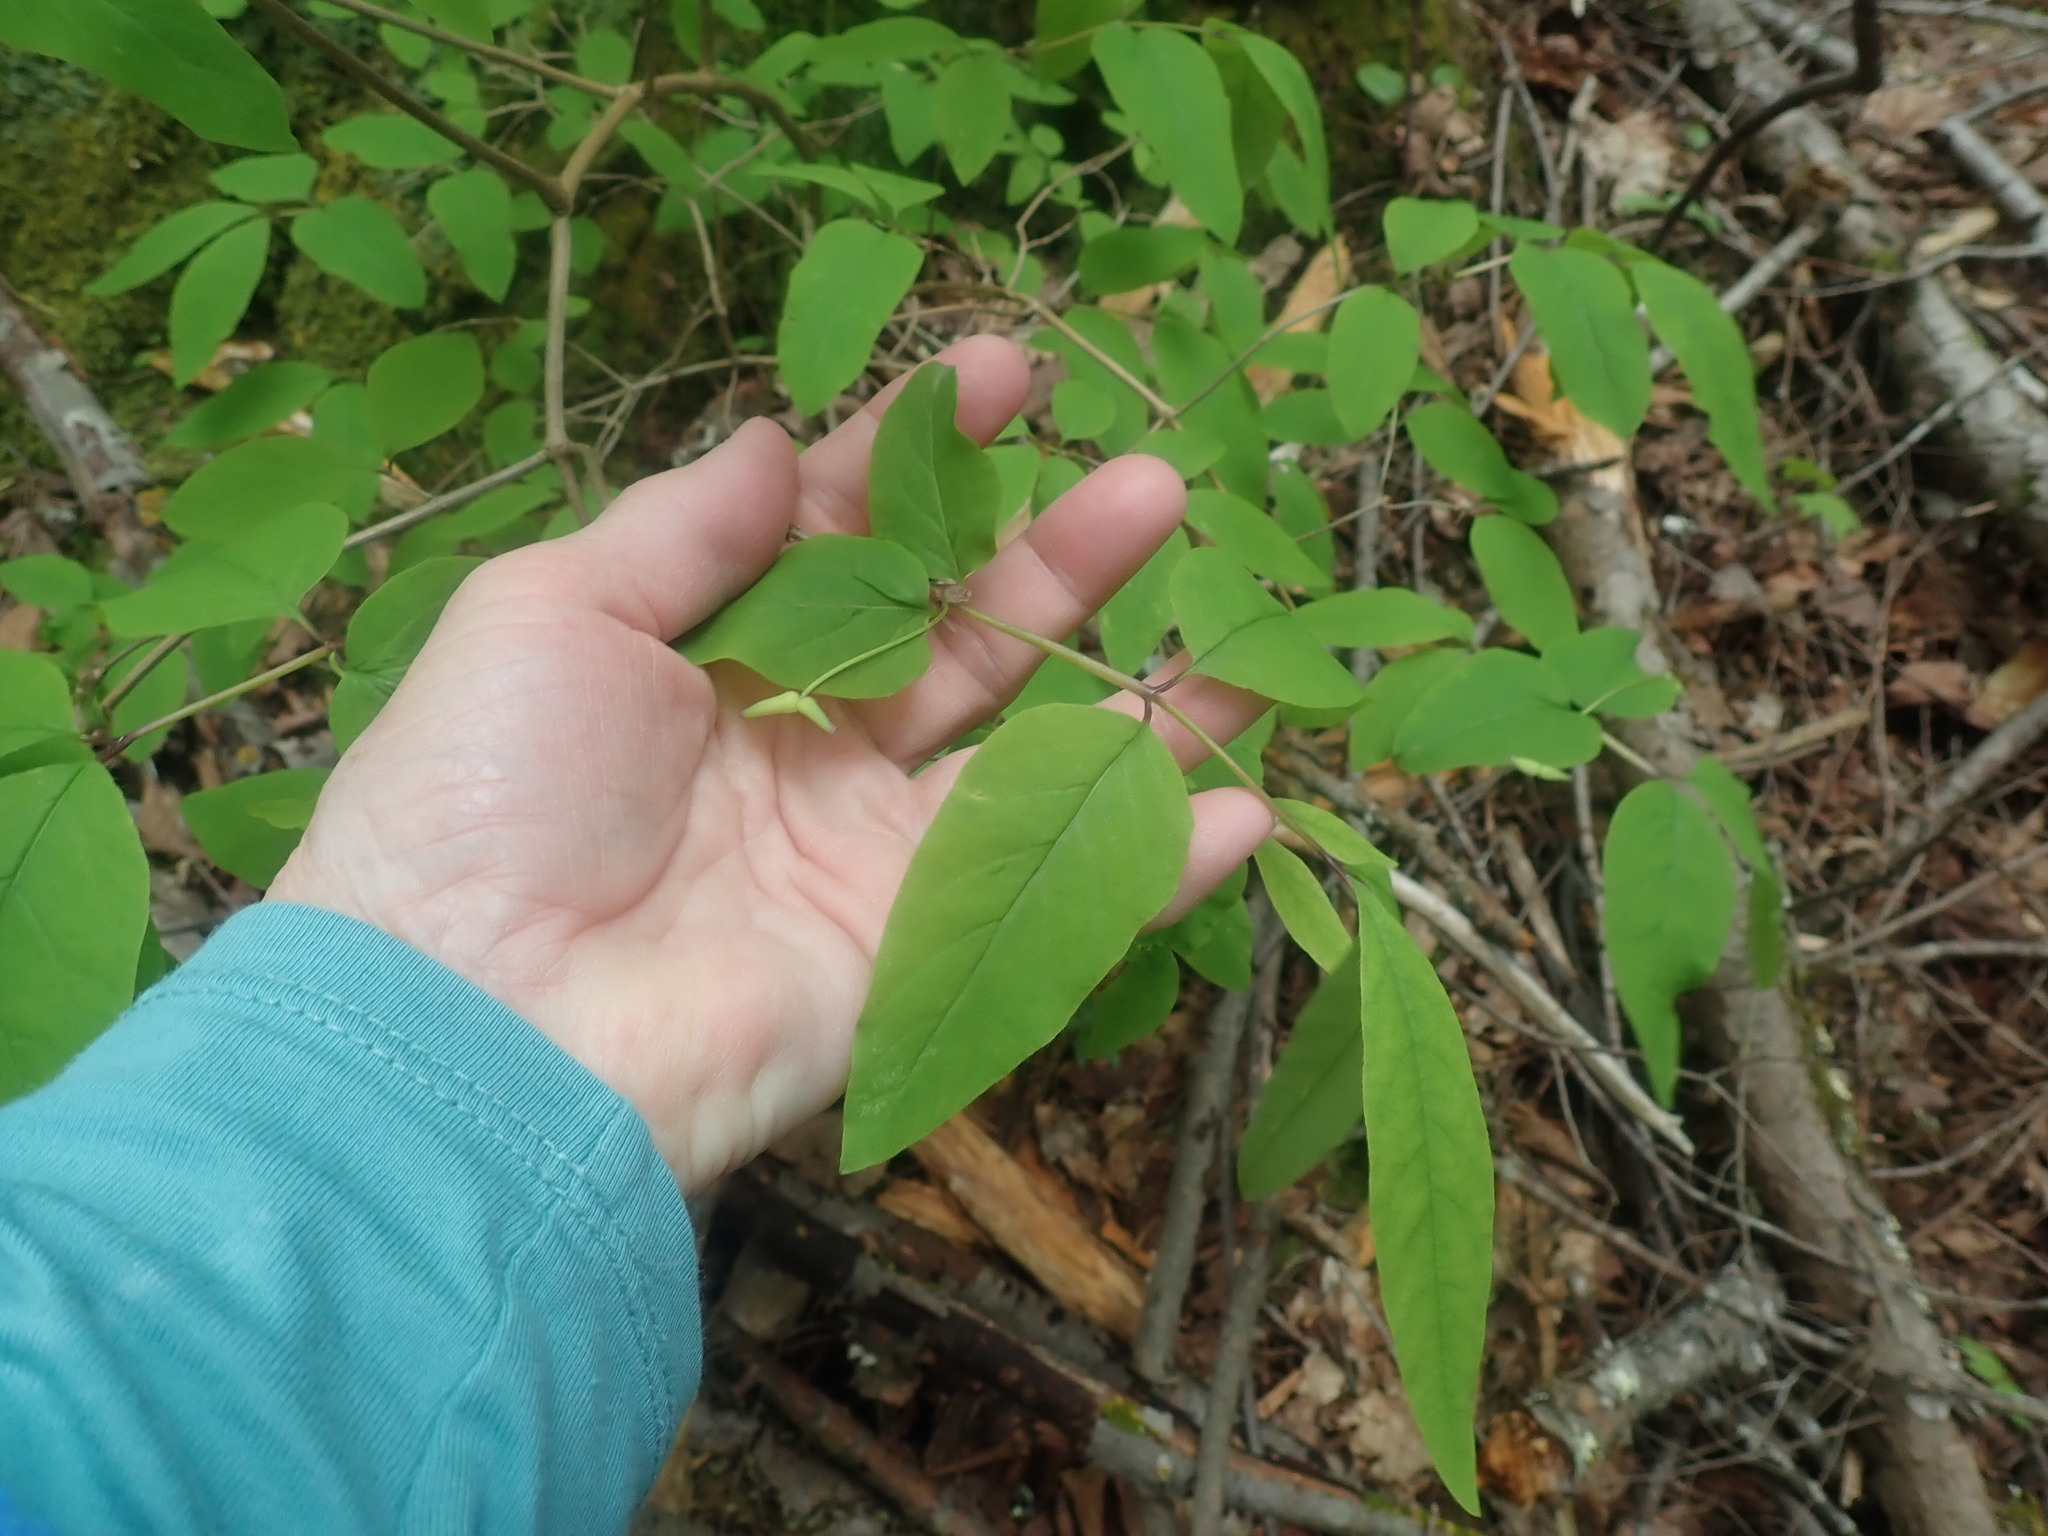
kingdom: Plantae
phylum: Tracheophyta
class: Magnoliopsida
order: Dipsacales
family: Caprifoliaceae
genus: Lonicera
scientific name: Lonicera canadensis
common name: American fly-honeysuckle
